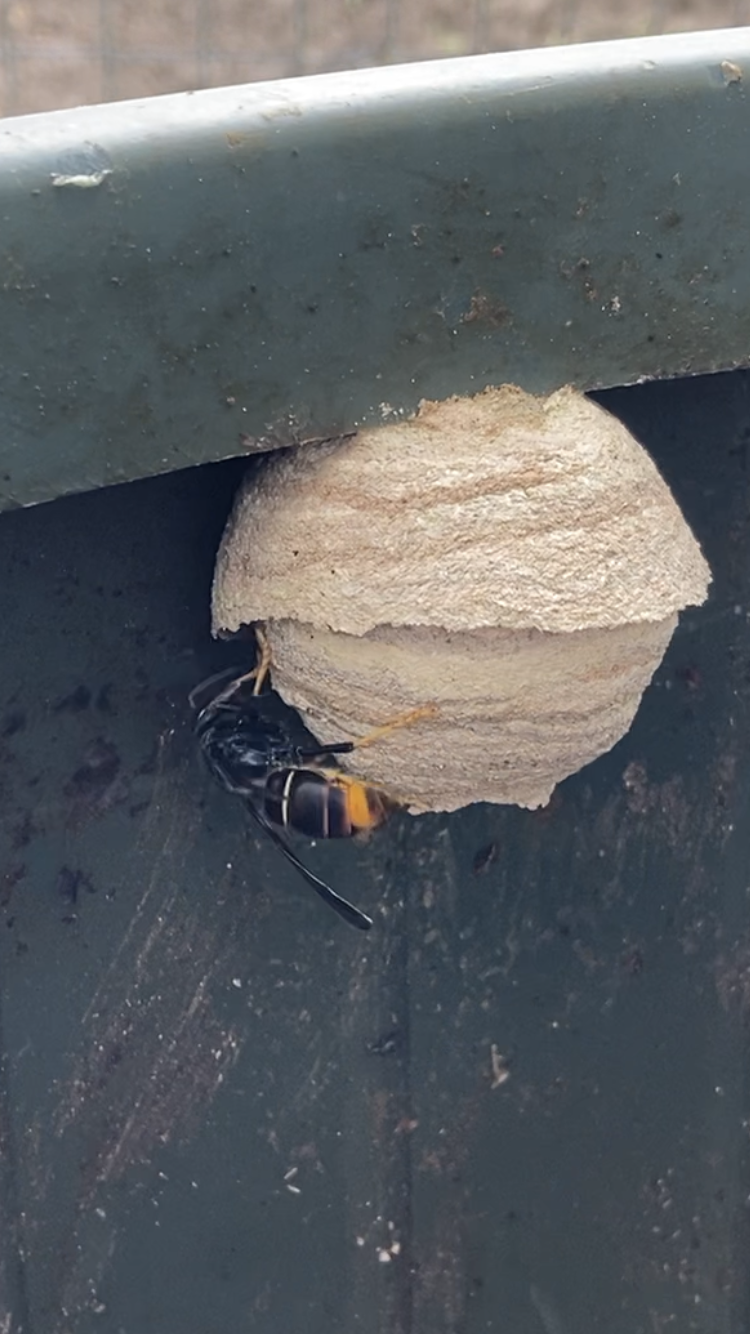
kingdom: Animalia
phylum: Arthropoda
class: Insecta
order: Hymenoptera
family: Vespidae
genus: Vespa
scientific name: Vespa velutina
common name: Asian hornet
